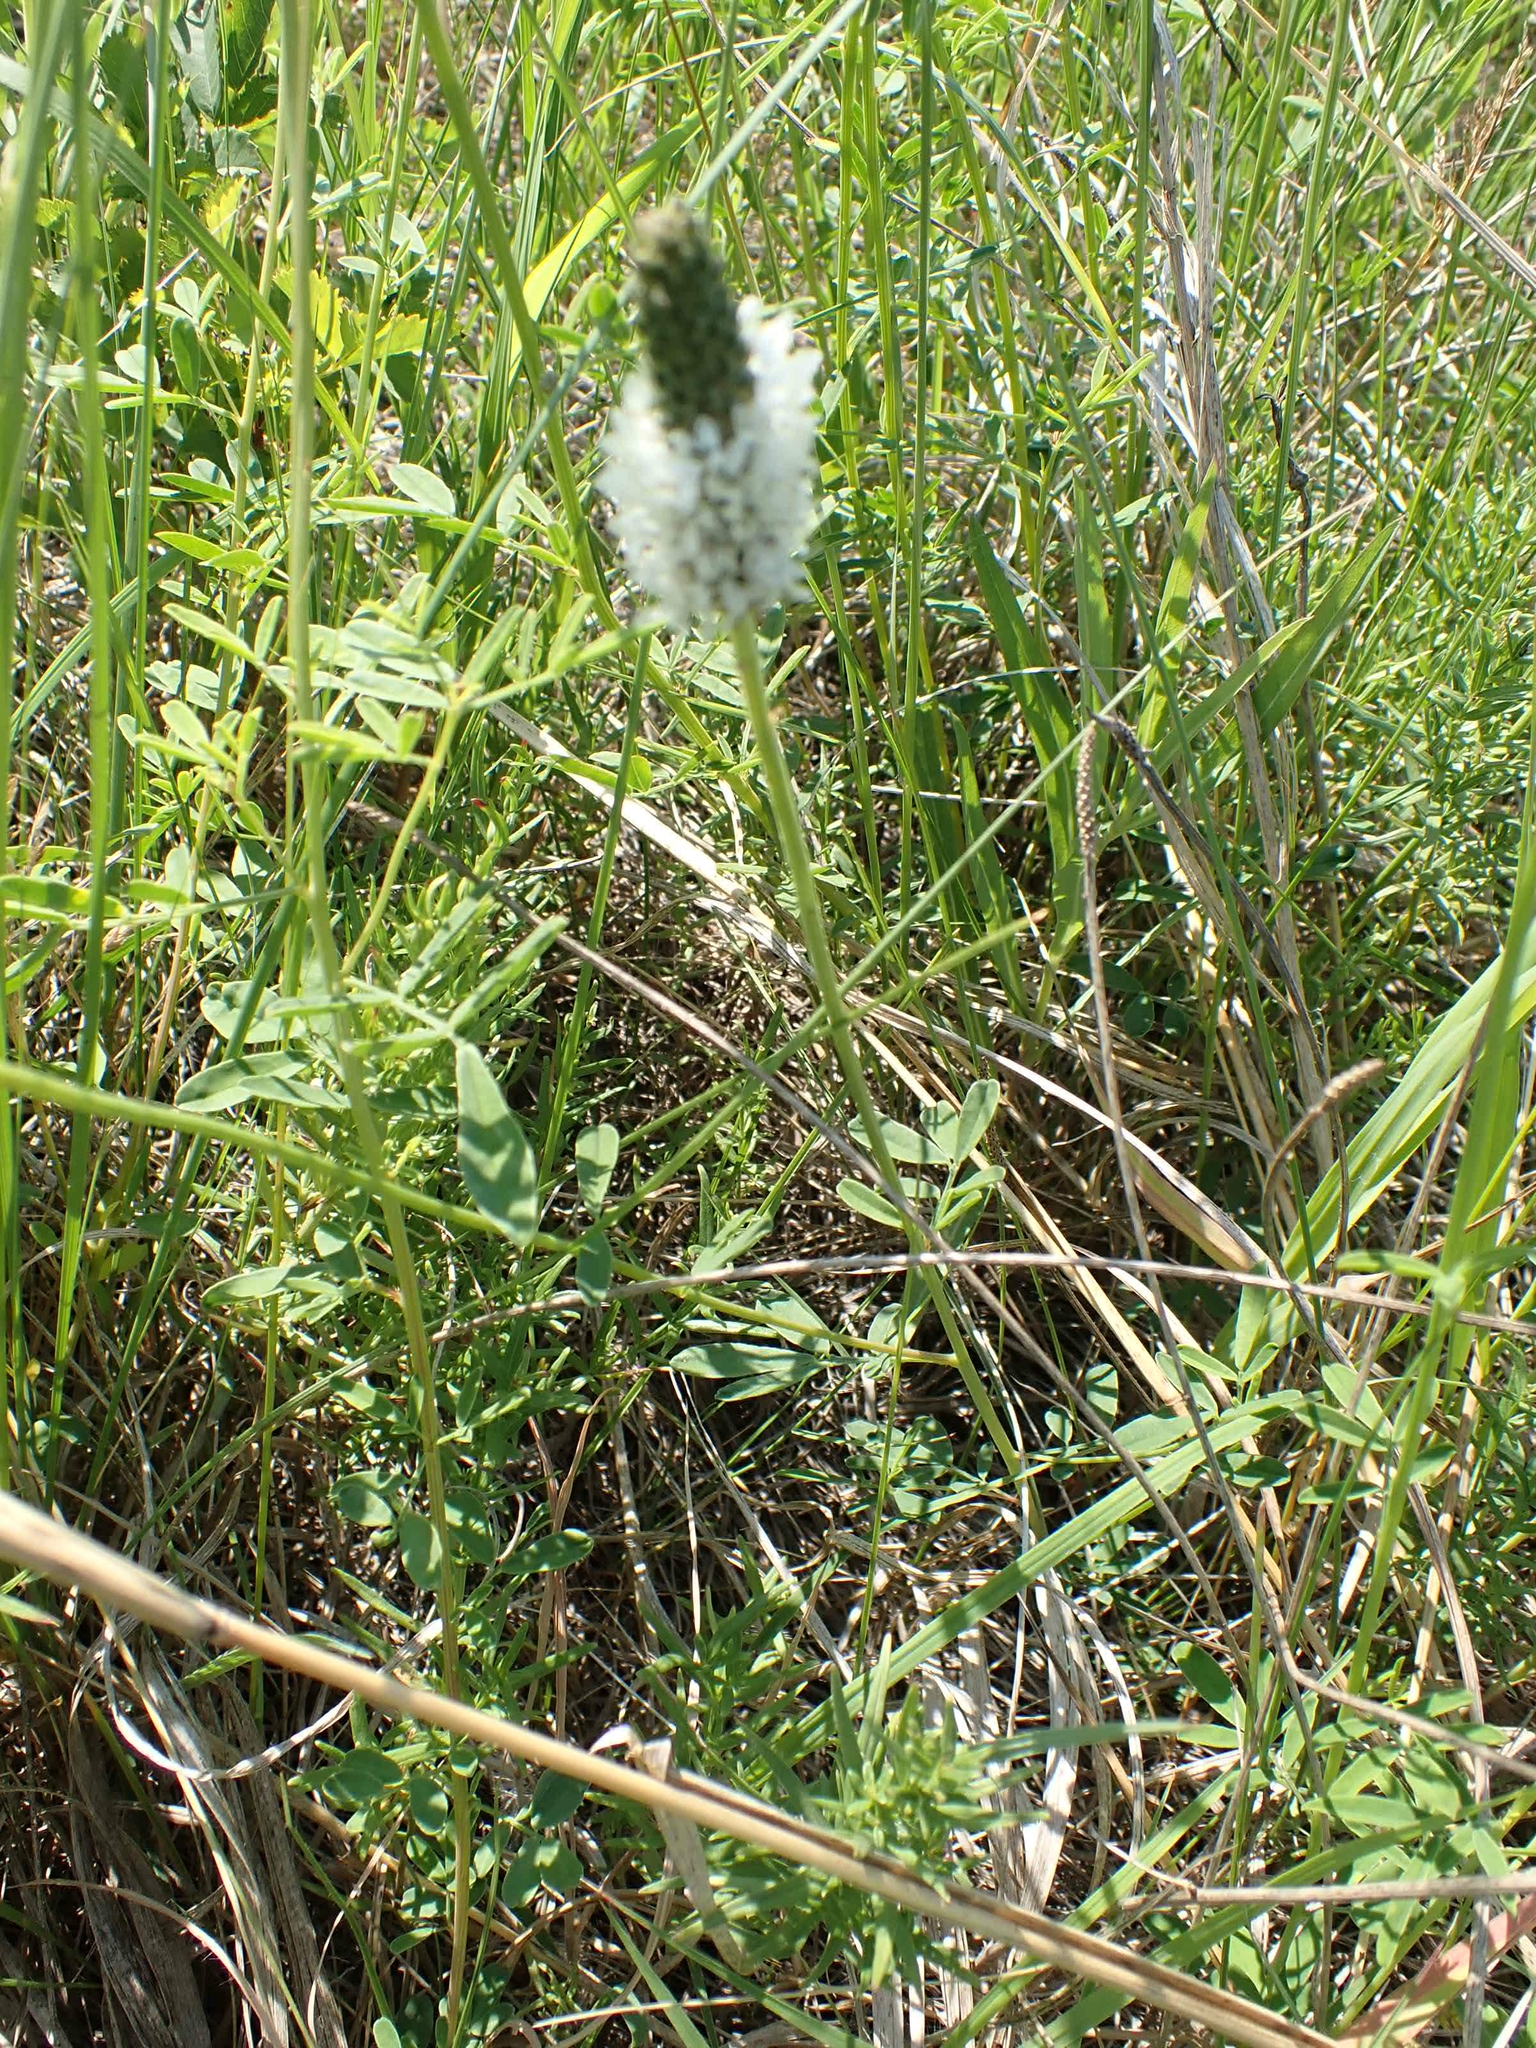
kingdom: Plantae
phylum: Tracheophyta
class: Magnoliopsida
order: Fabales
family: Fabaceae
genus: Dalea
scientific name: Dalea candida
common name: White prairie-clover
